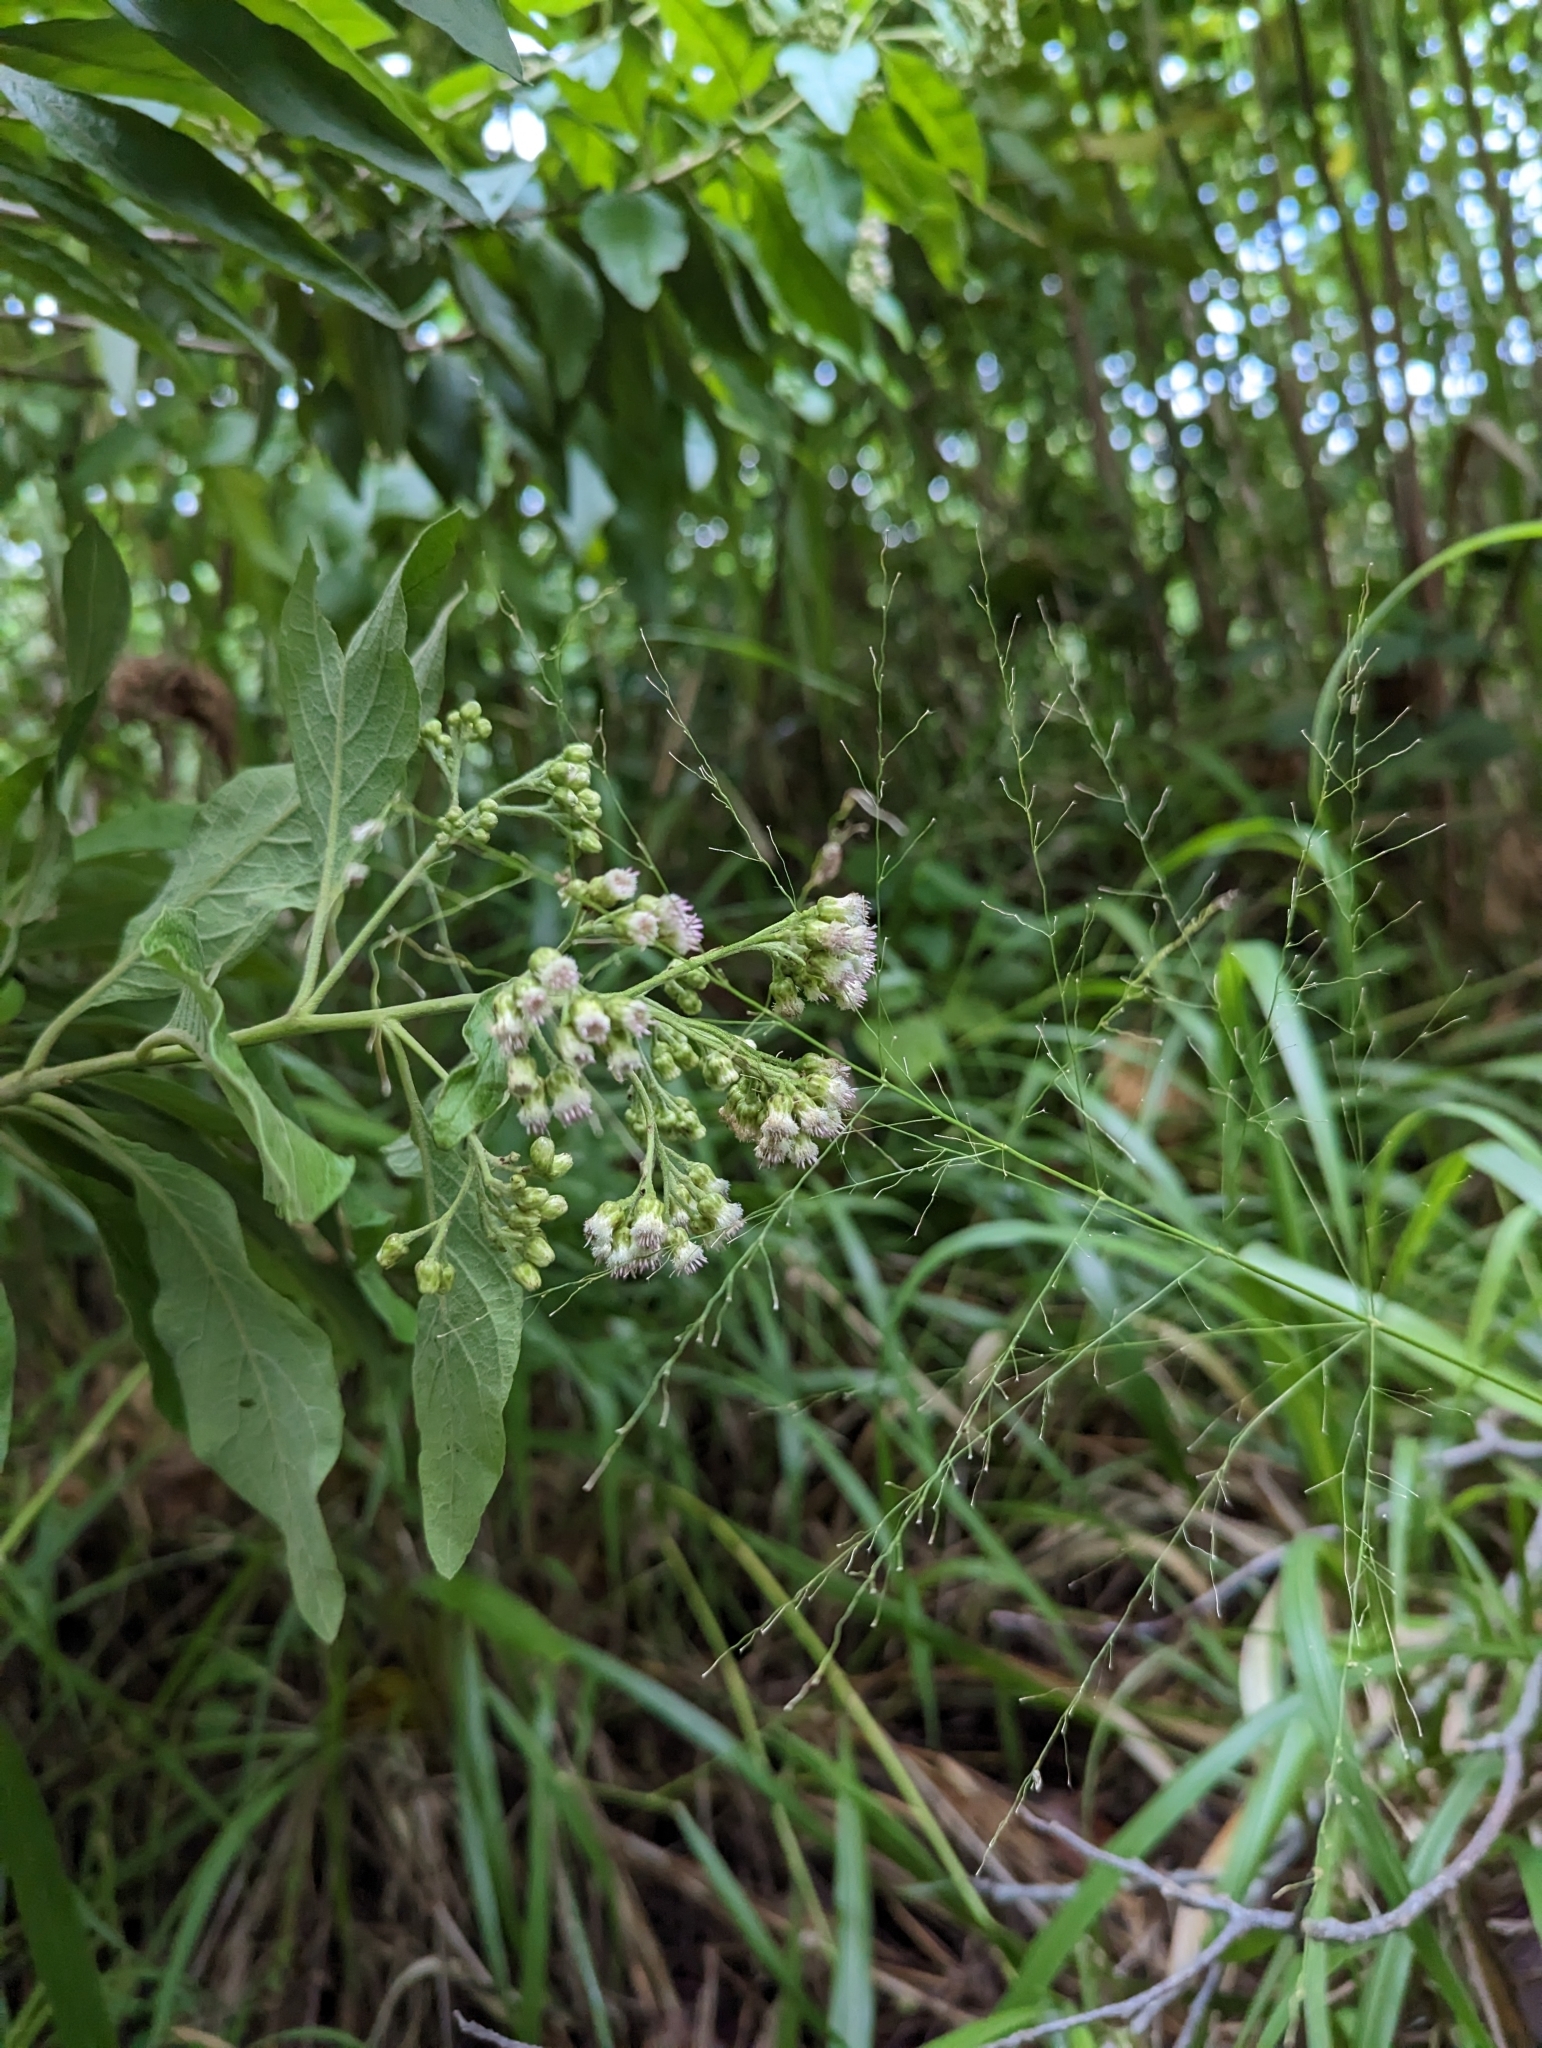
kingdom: Plantae
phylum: Tracheophyta
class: Magnoliopsida
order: Asterales
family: Asteraceae
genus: Pluchea
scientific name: Pluchea carolinensis
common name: Marsh fleabane
